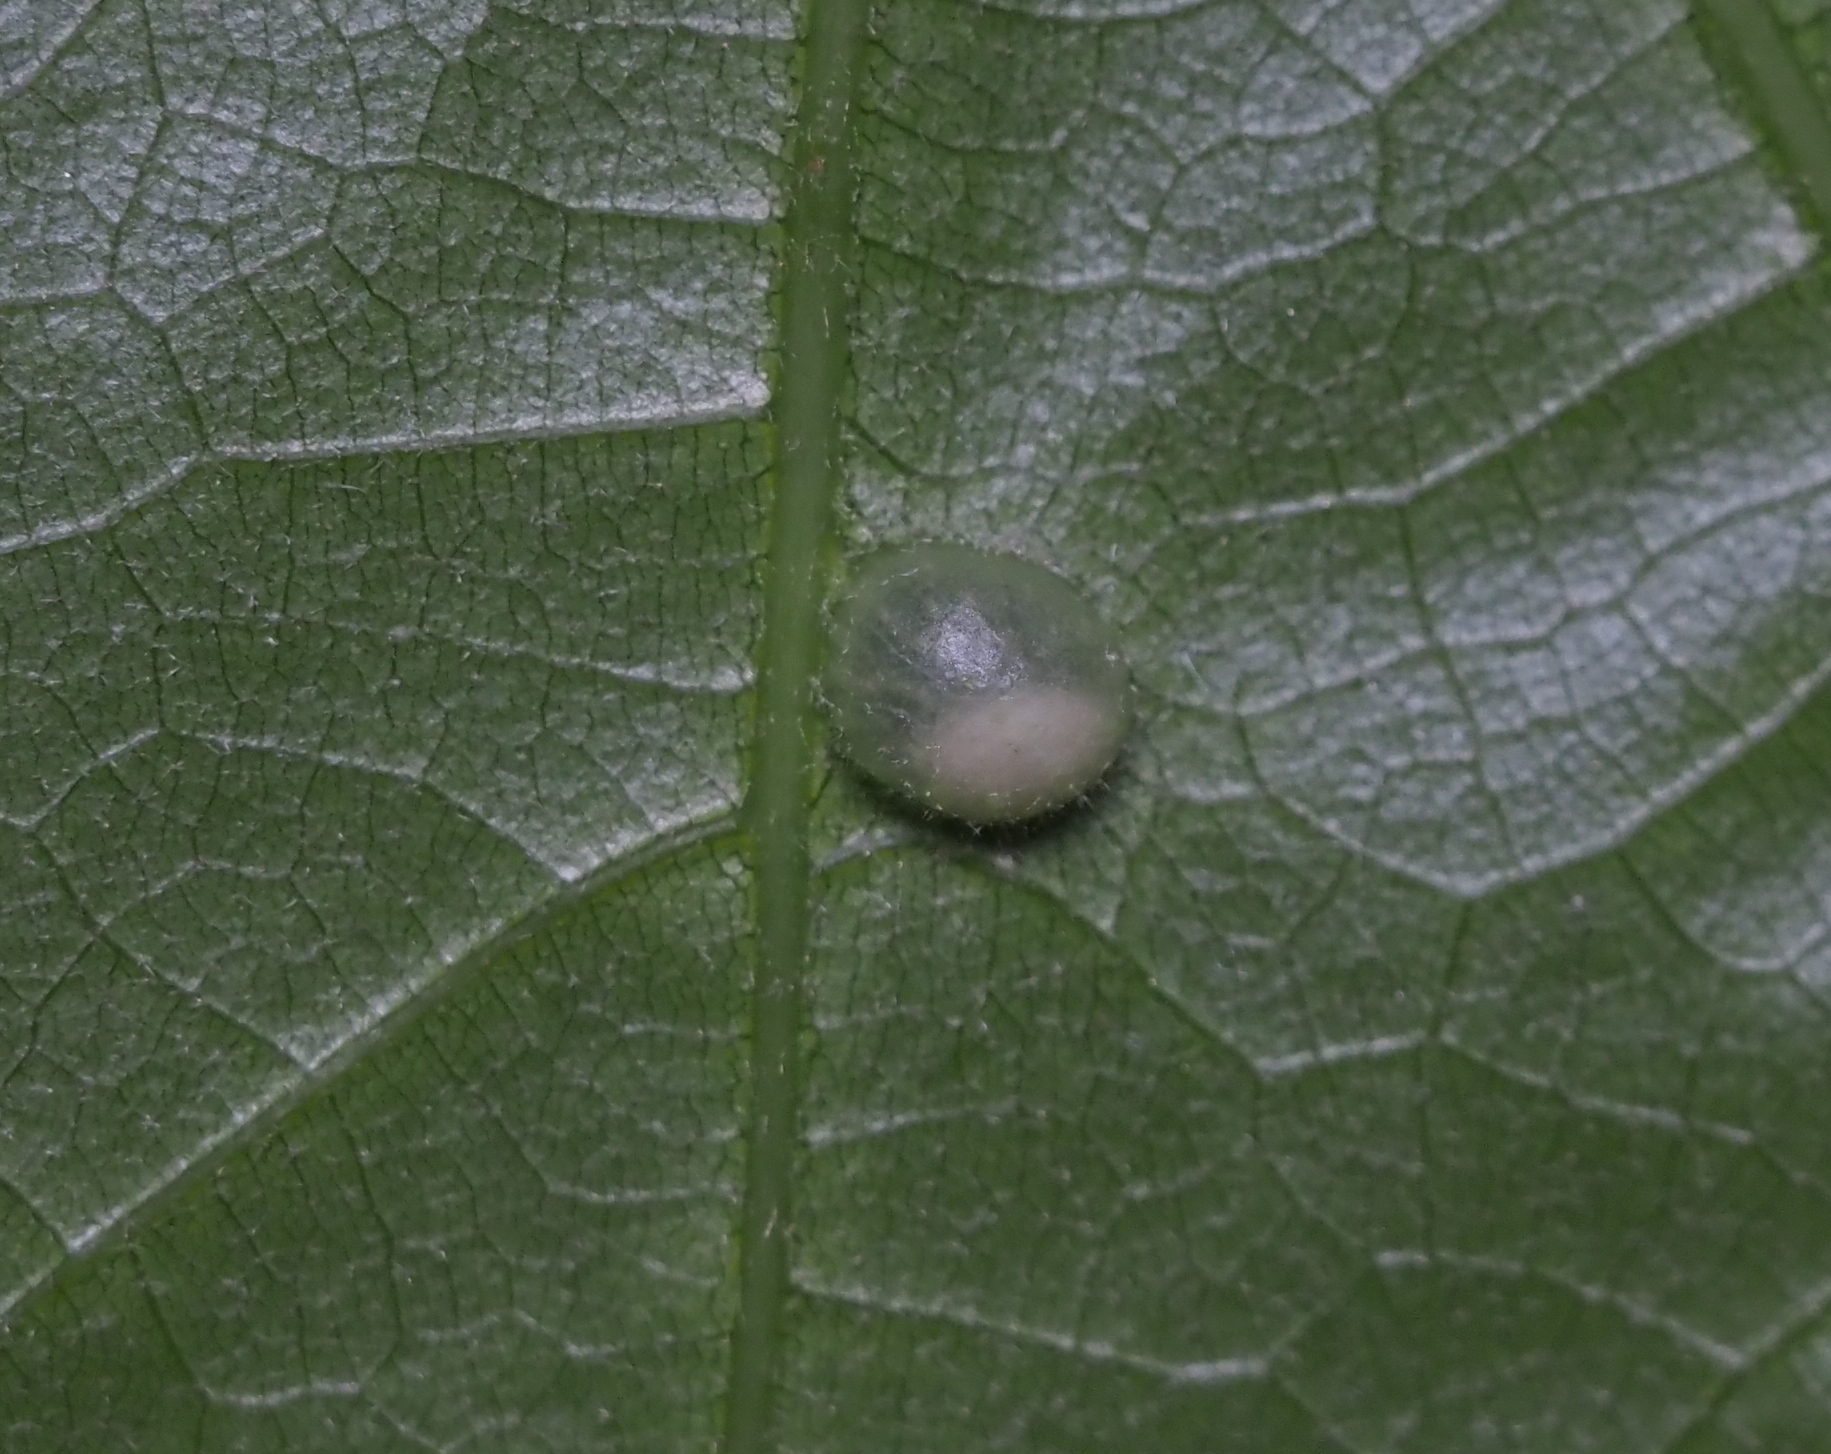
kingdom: Animalia
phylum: Arthropoda
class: Insecta
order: Hymenoptera
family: Cynipidae
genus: Dryocosmus
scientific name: Dryocosmus
